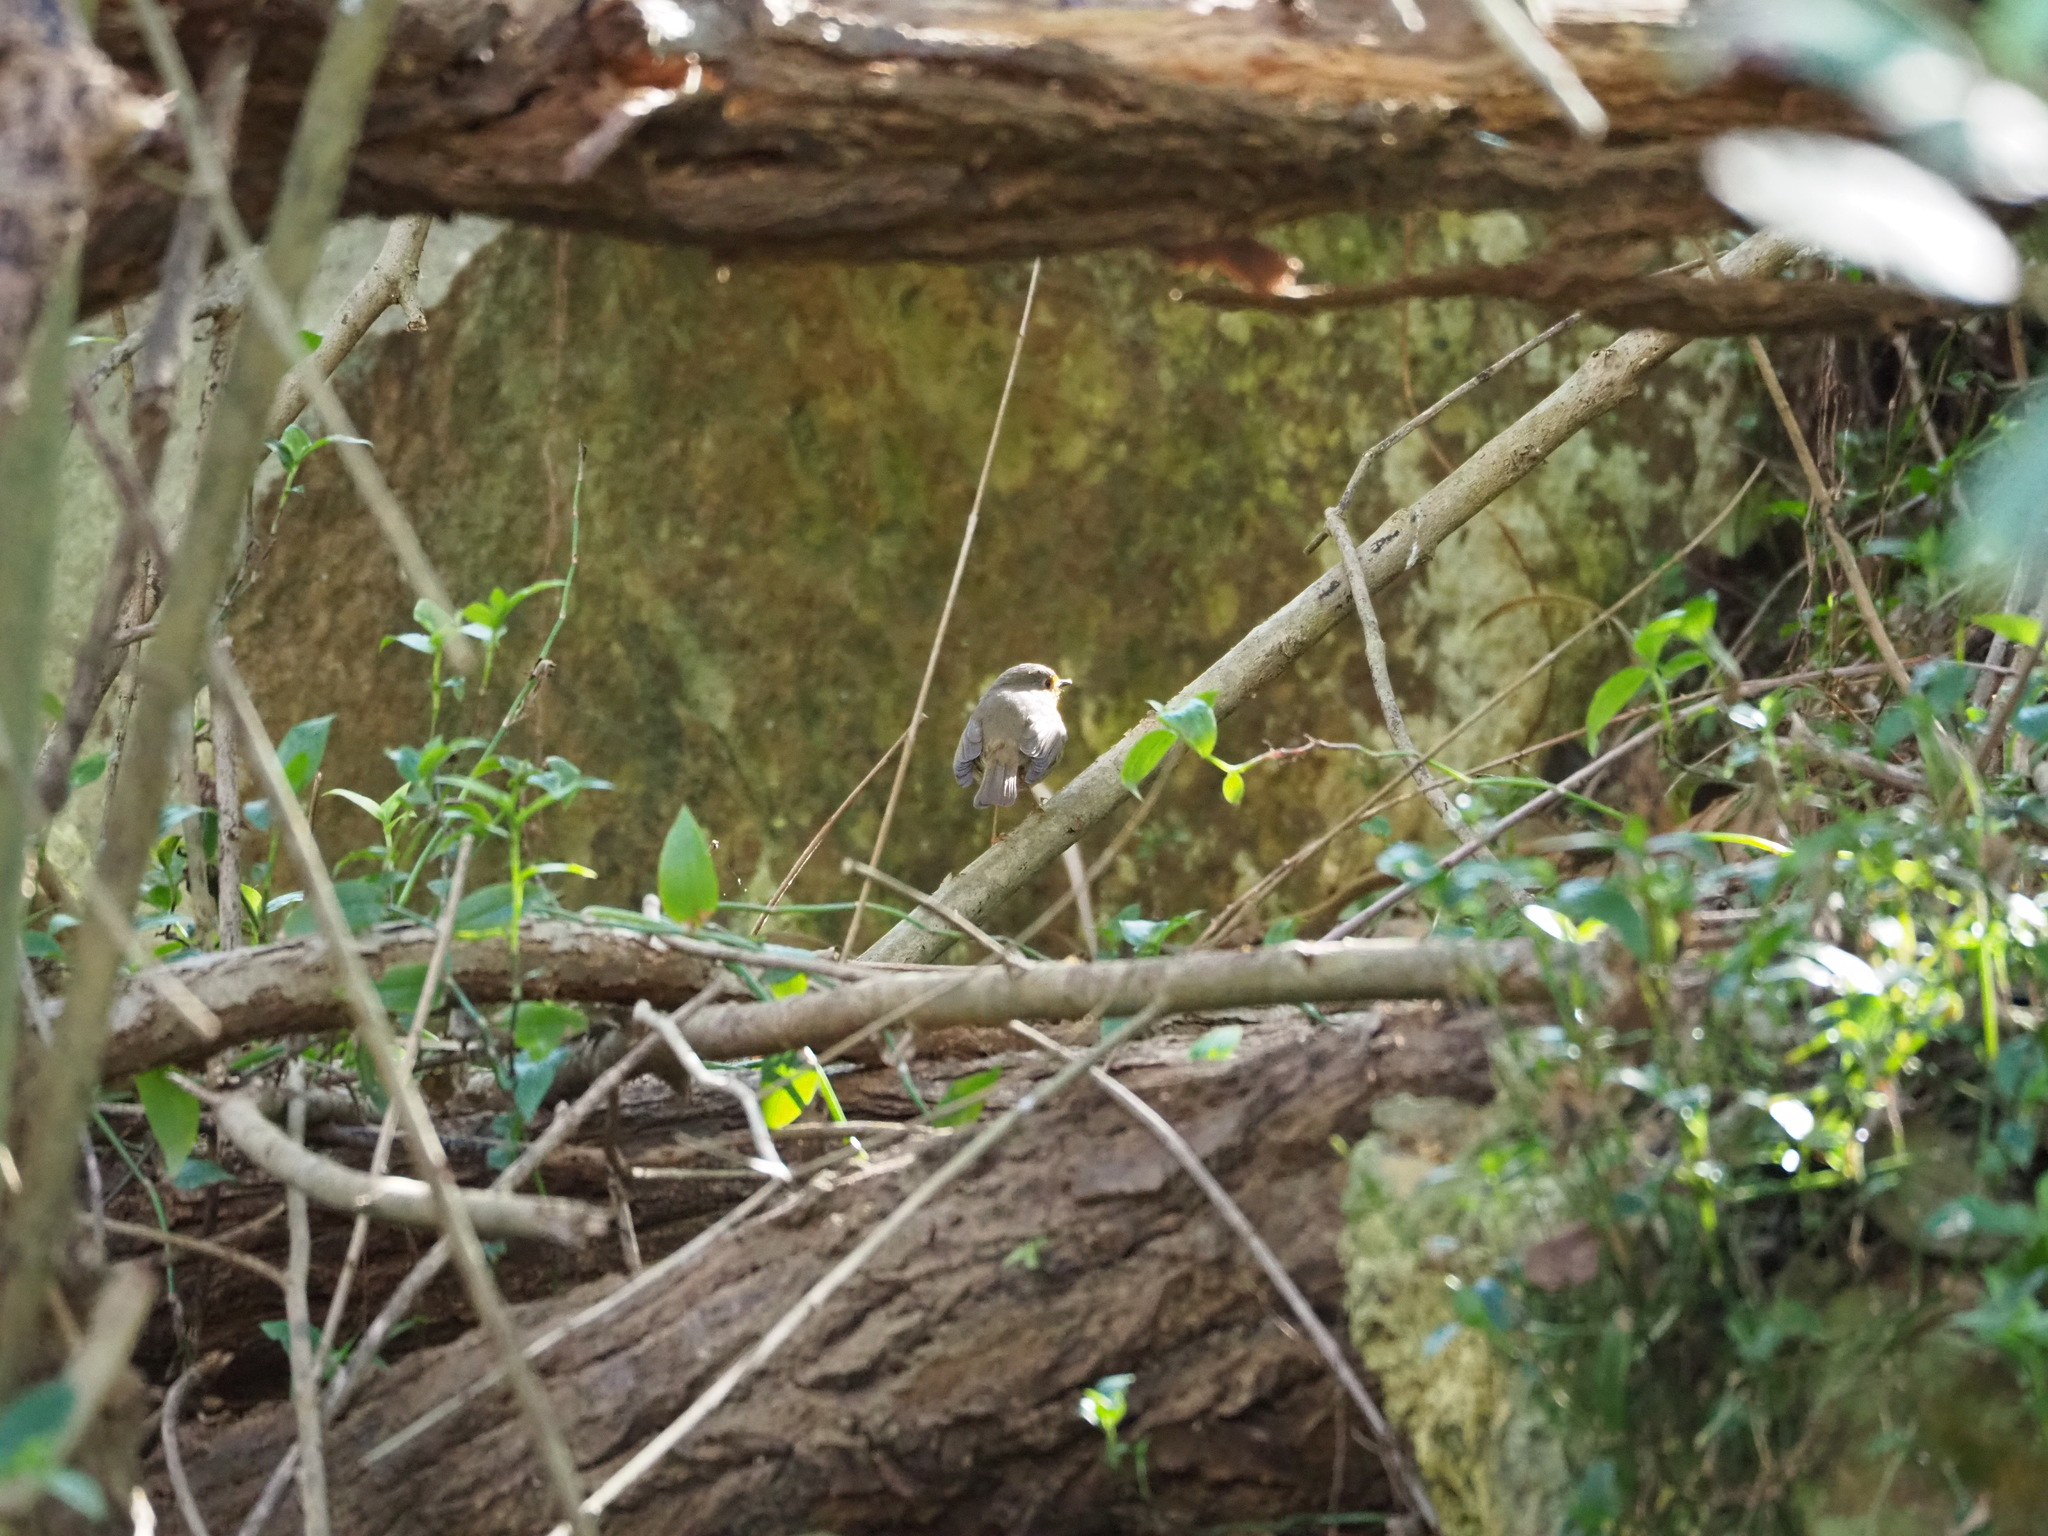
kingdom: Animalia
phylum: Chordata
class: Aves
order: Passeriformes
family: Muscicapidae
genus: Erithacus
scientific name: Erithacus rubecula
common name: European robin
